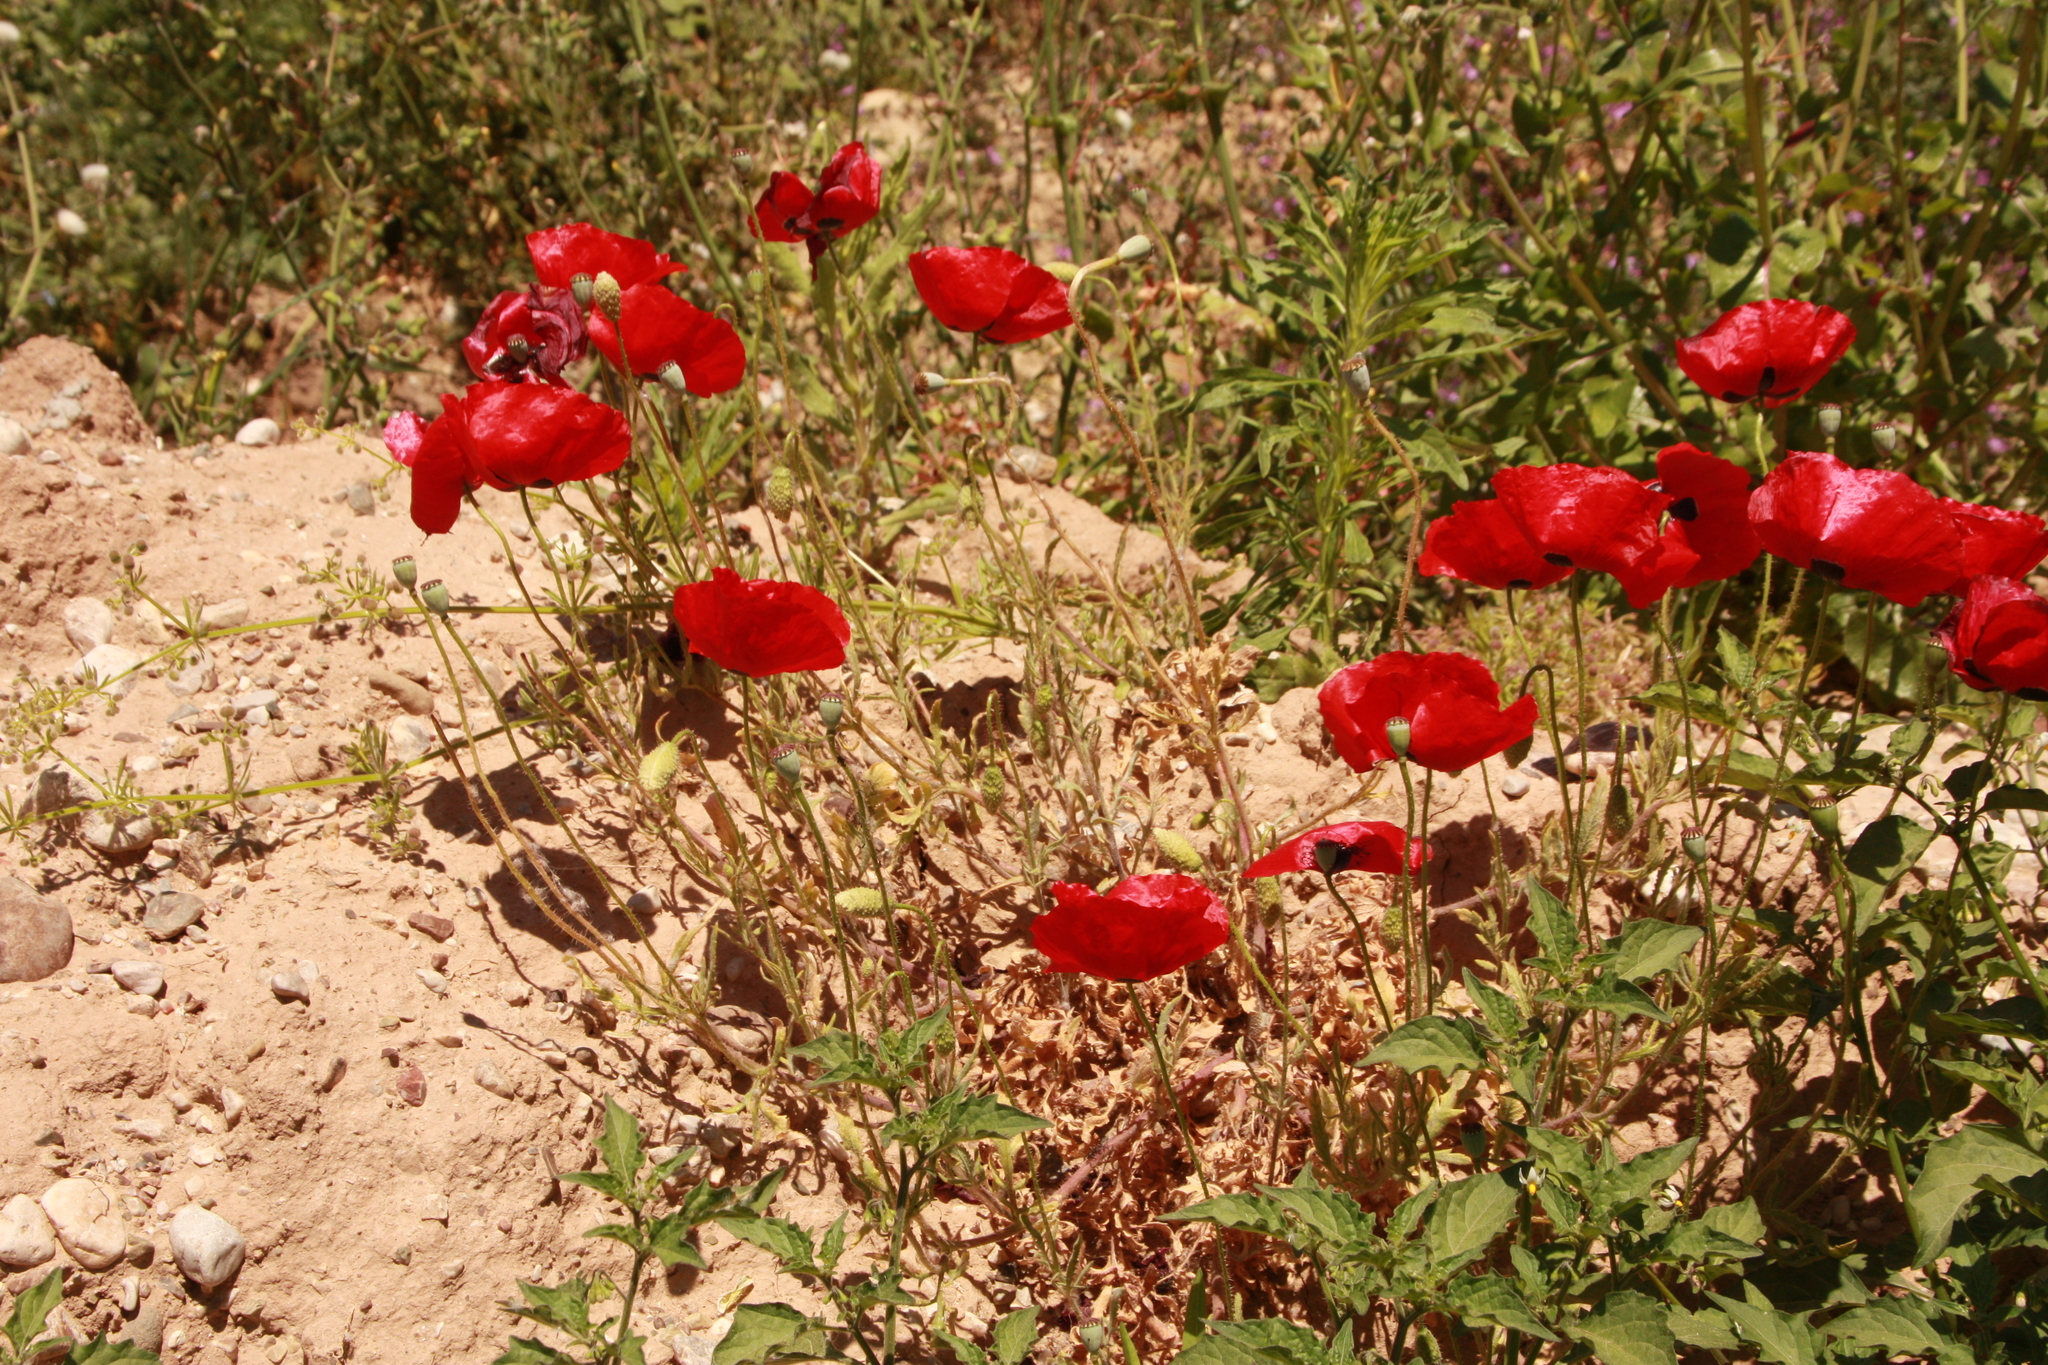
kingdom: Plantae
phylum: Tracheophyta
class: Magnoliopsida
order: Ranunculales
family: Papaveraceae
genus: Papaver
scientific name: Papaver rhoeas
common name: Corn poppy
